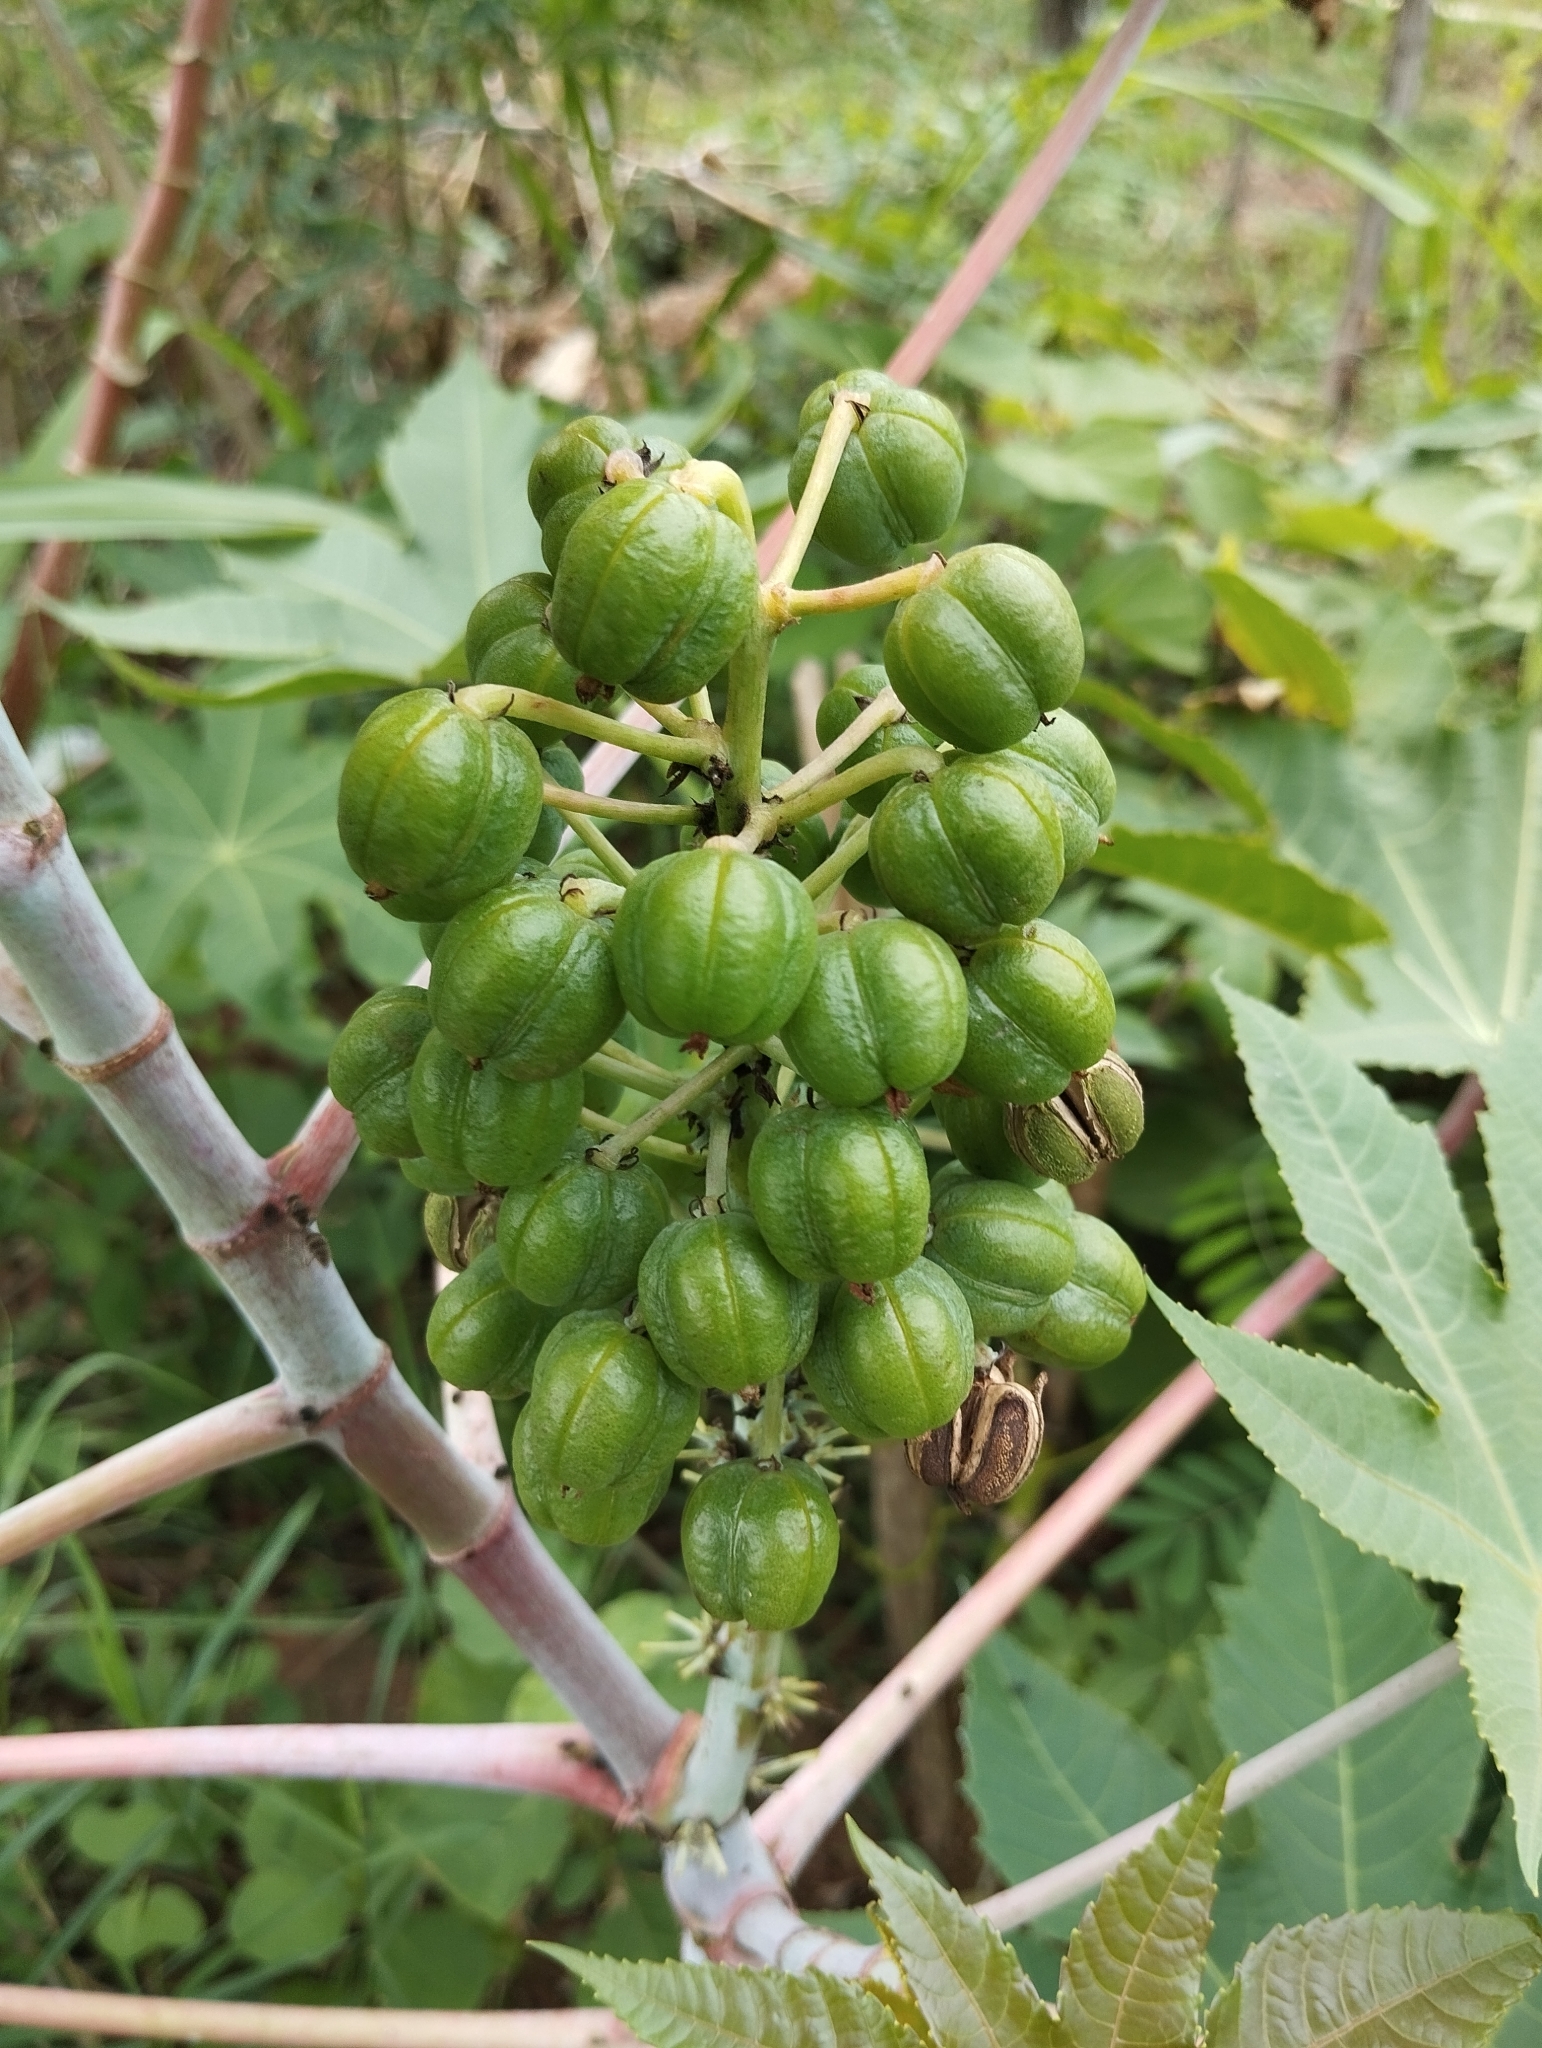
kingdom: Plantae
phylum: Tracheophyta
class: Magnoliopsida
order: Malpighiales
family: Euphorbiaceae
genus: Ricinus
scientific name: Ricinus communis
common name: Castor-oil-plant
